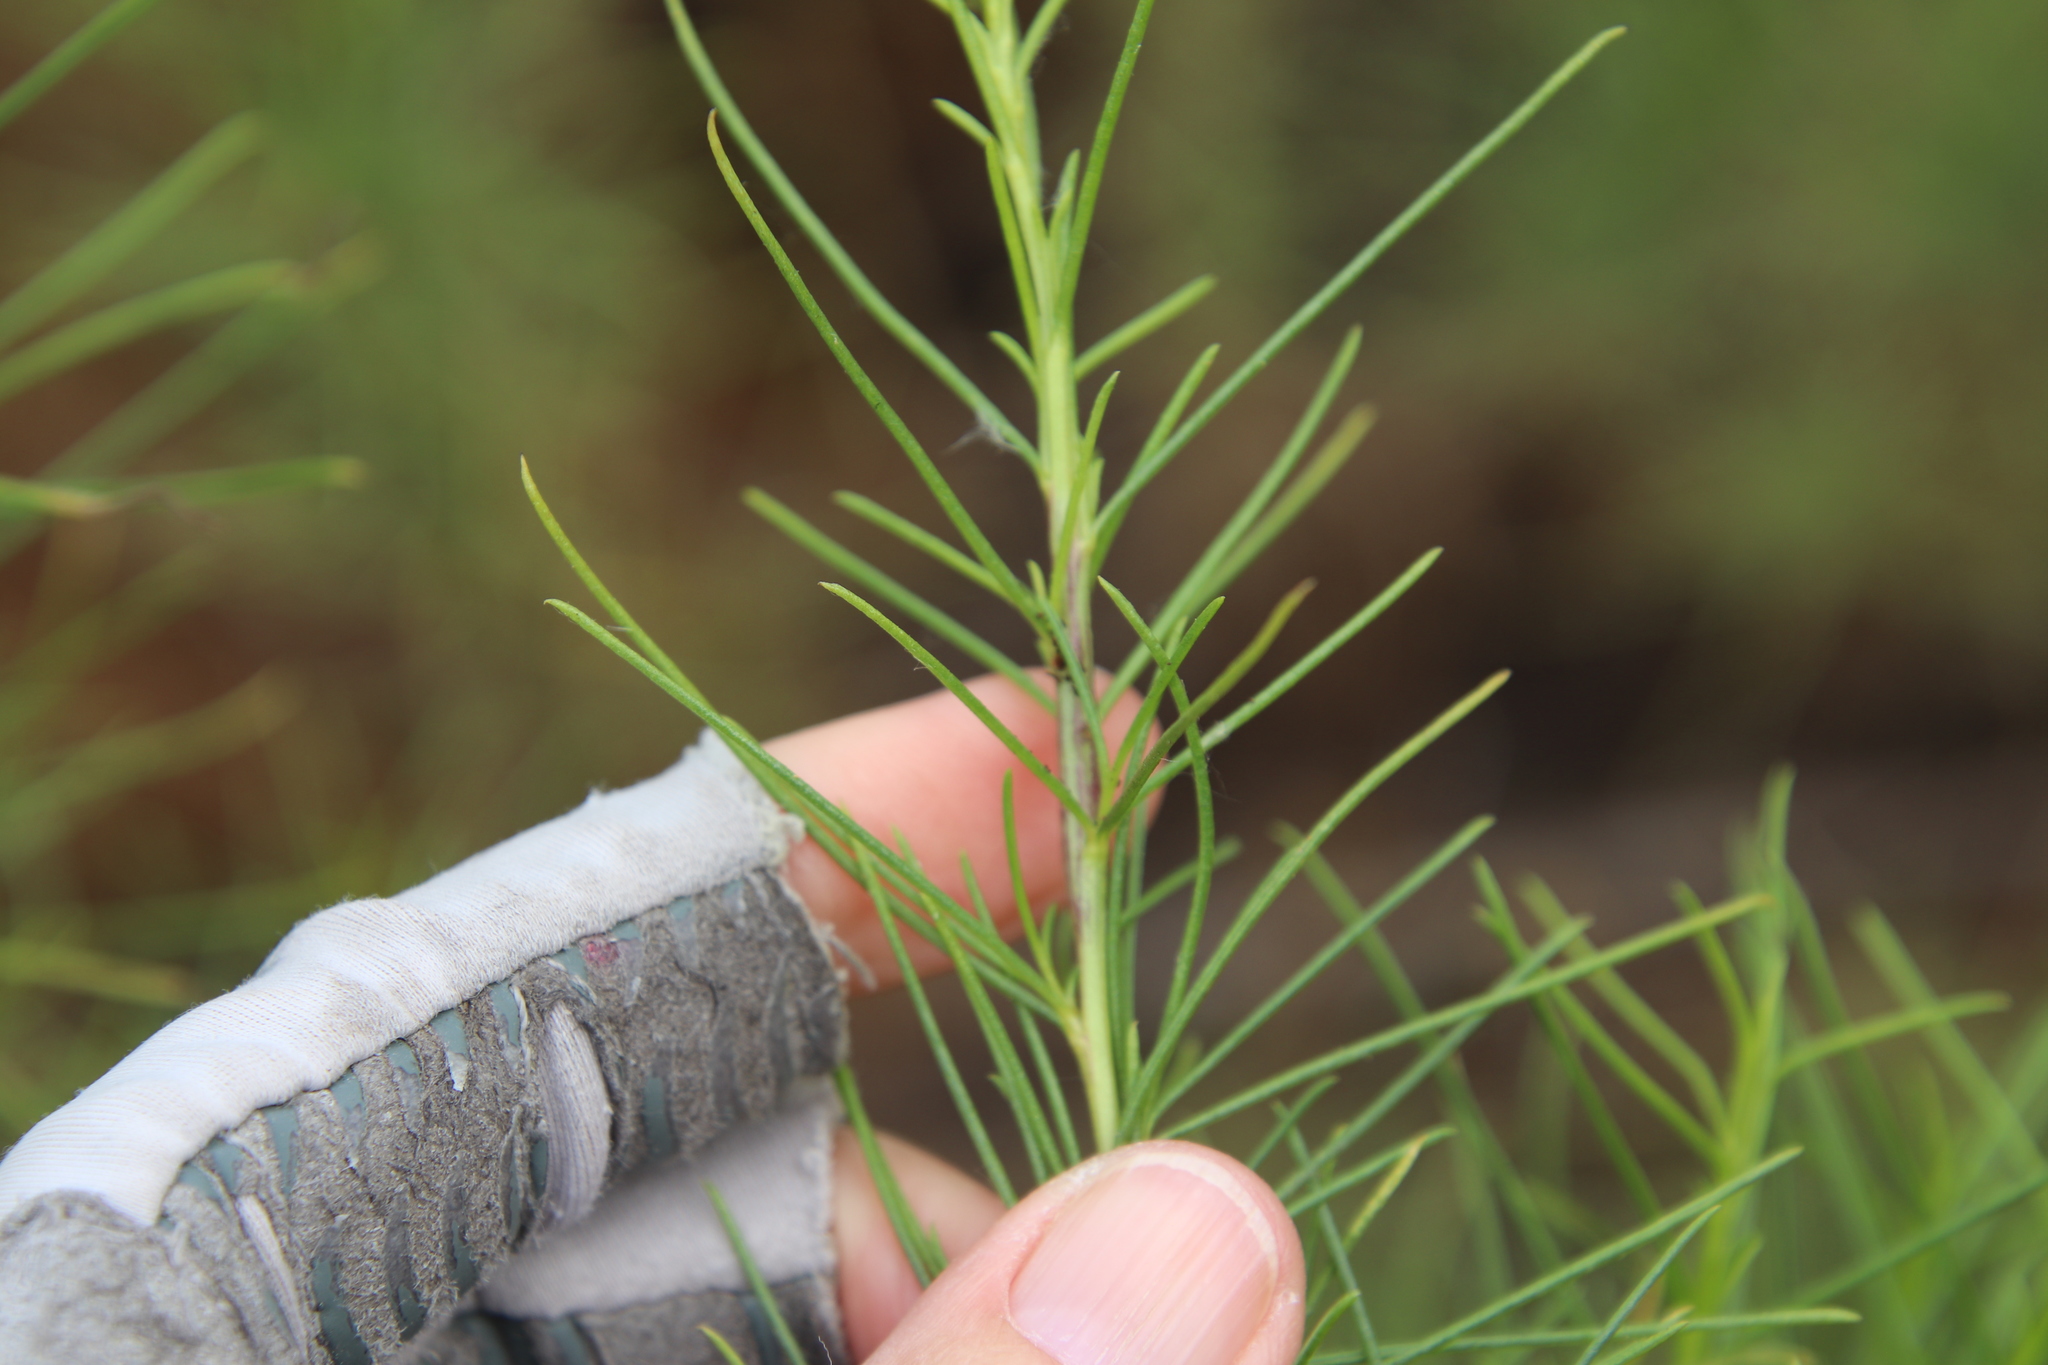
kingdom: Plantae
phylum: Tracheophyta
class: Magnoliopsida
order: Asterales
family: Asteraceae
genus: Ambrosia
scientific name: Ambrosia monogyra
